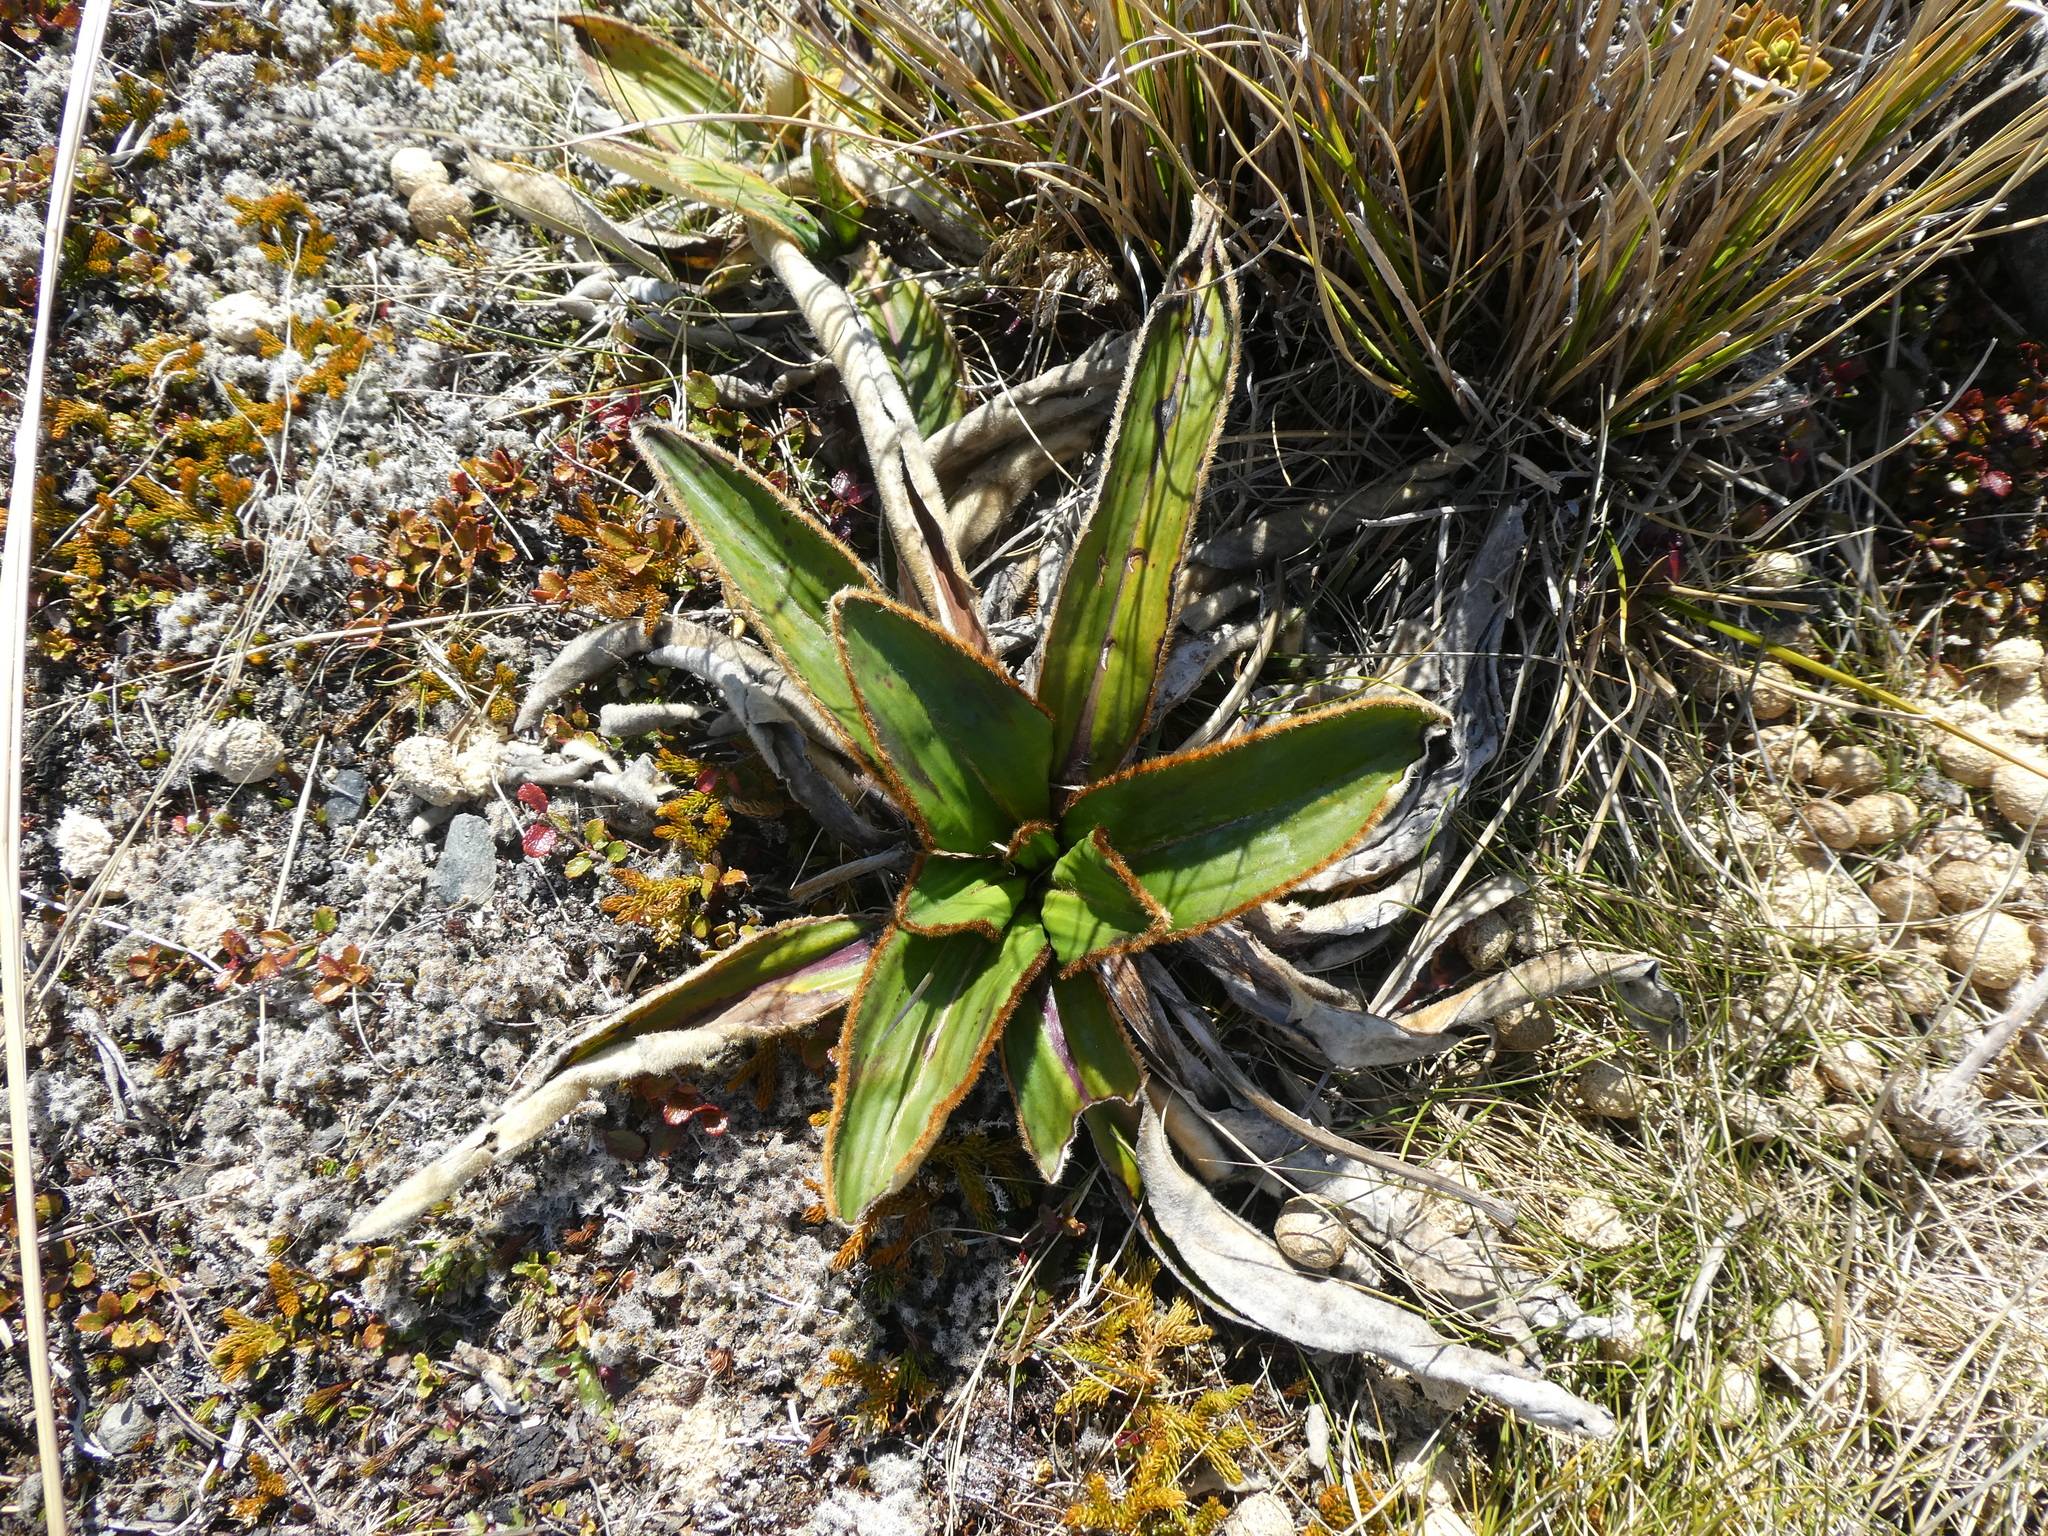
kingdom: Plantae
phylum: Tracheophyta
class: Magnoliopsida
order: Asterales
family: Asteraceae
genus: Celmisia
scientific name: Celmisia traversii
